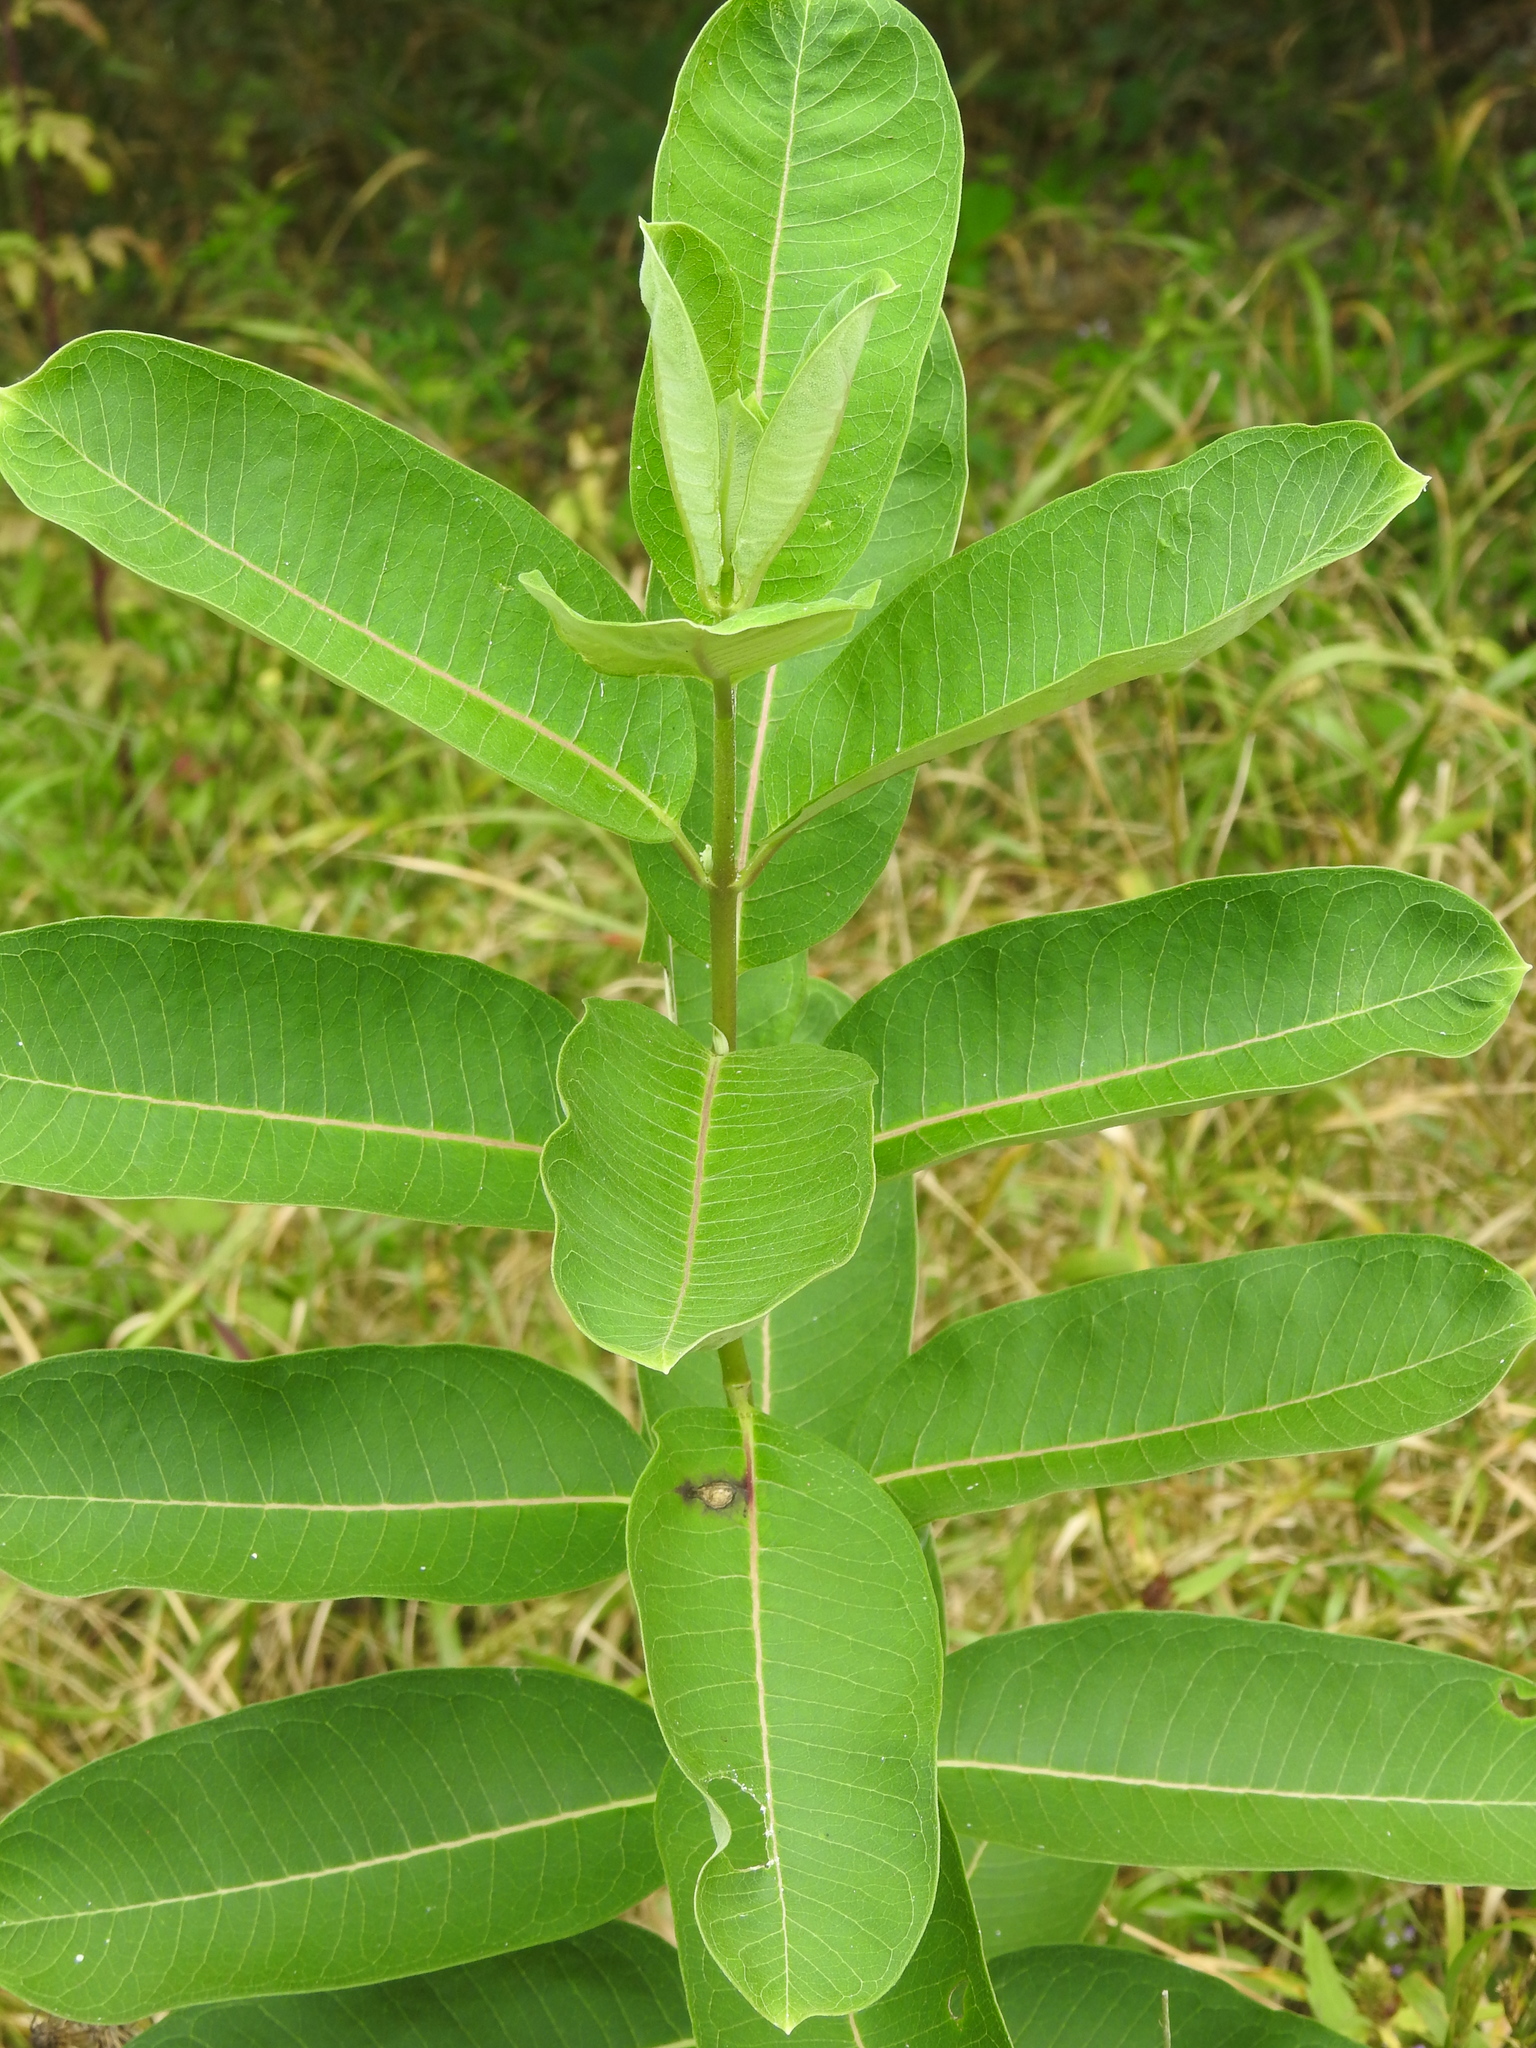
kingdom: Plantae
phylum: Tracheophyta
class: Magnoliopsida
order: Gentianales
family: Apocynaceae
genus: Asclepias
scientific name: Asclepias syriaca
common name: Common milkweed
